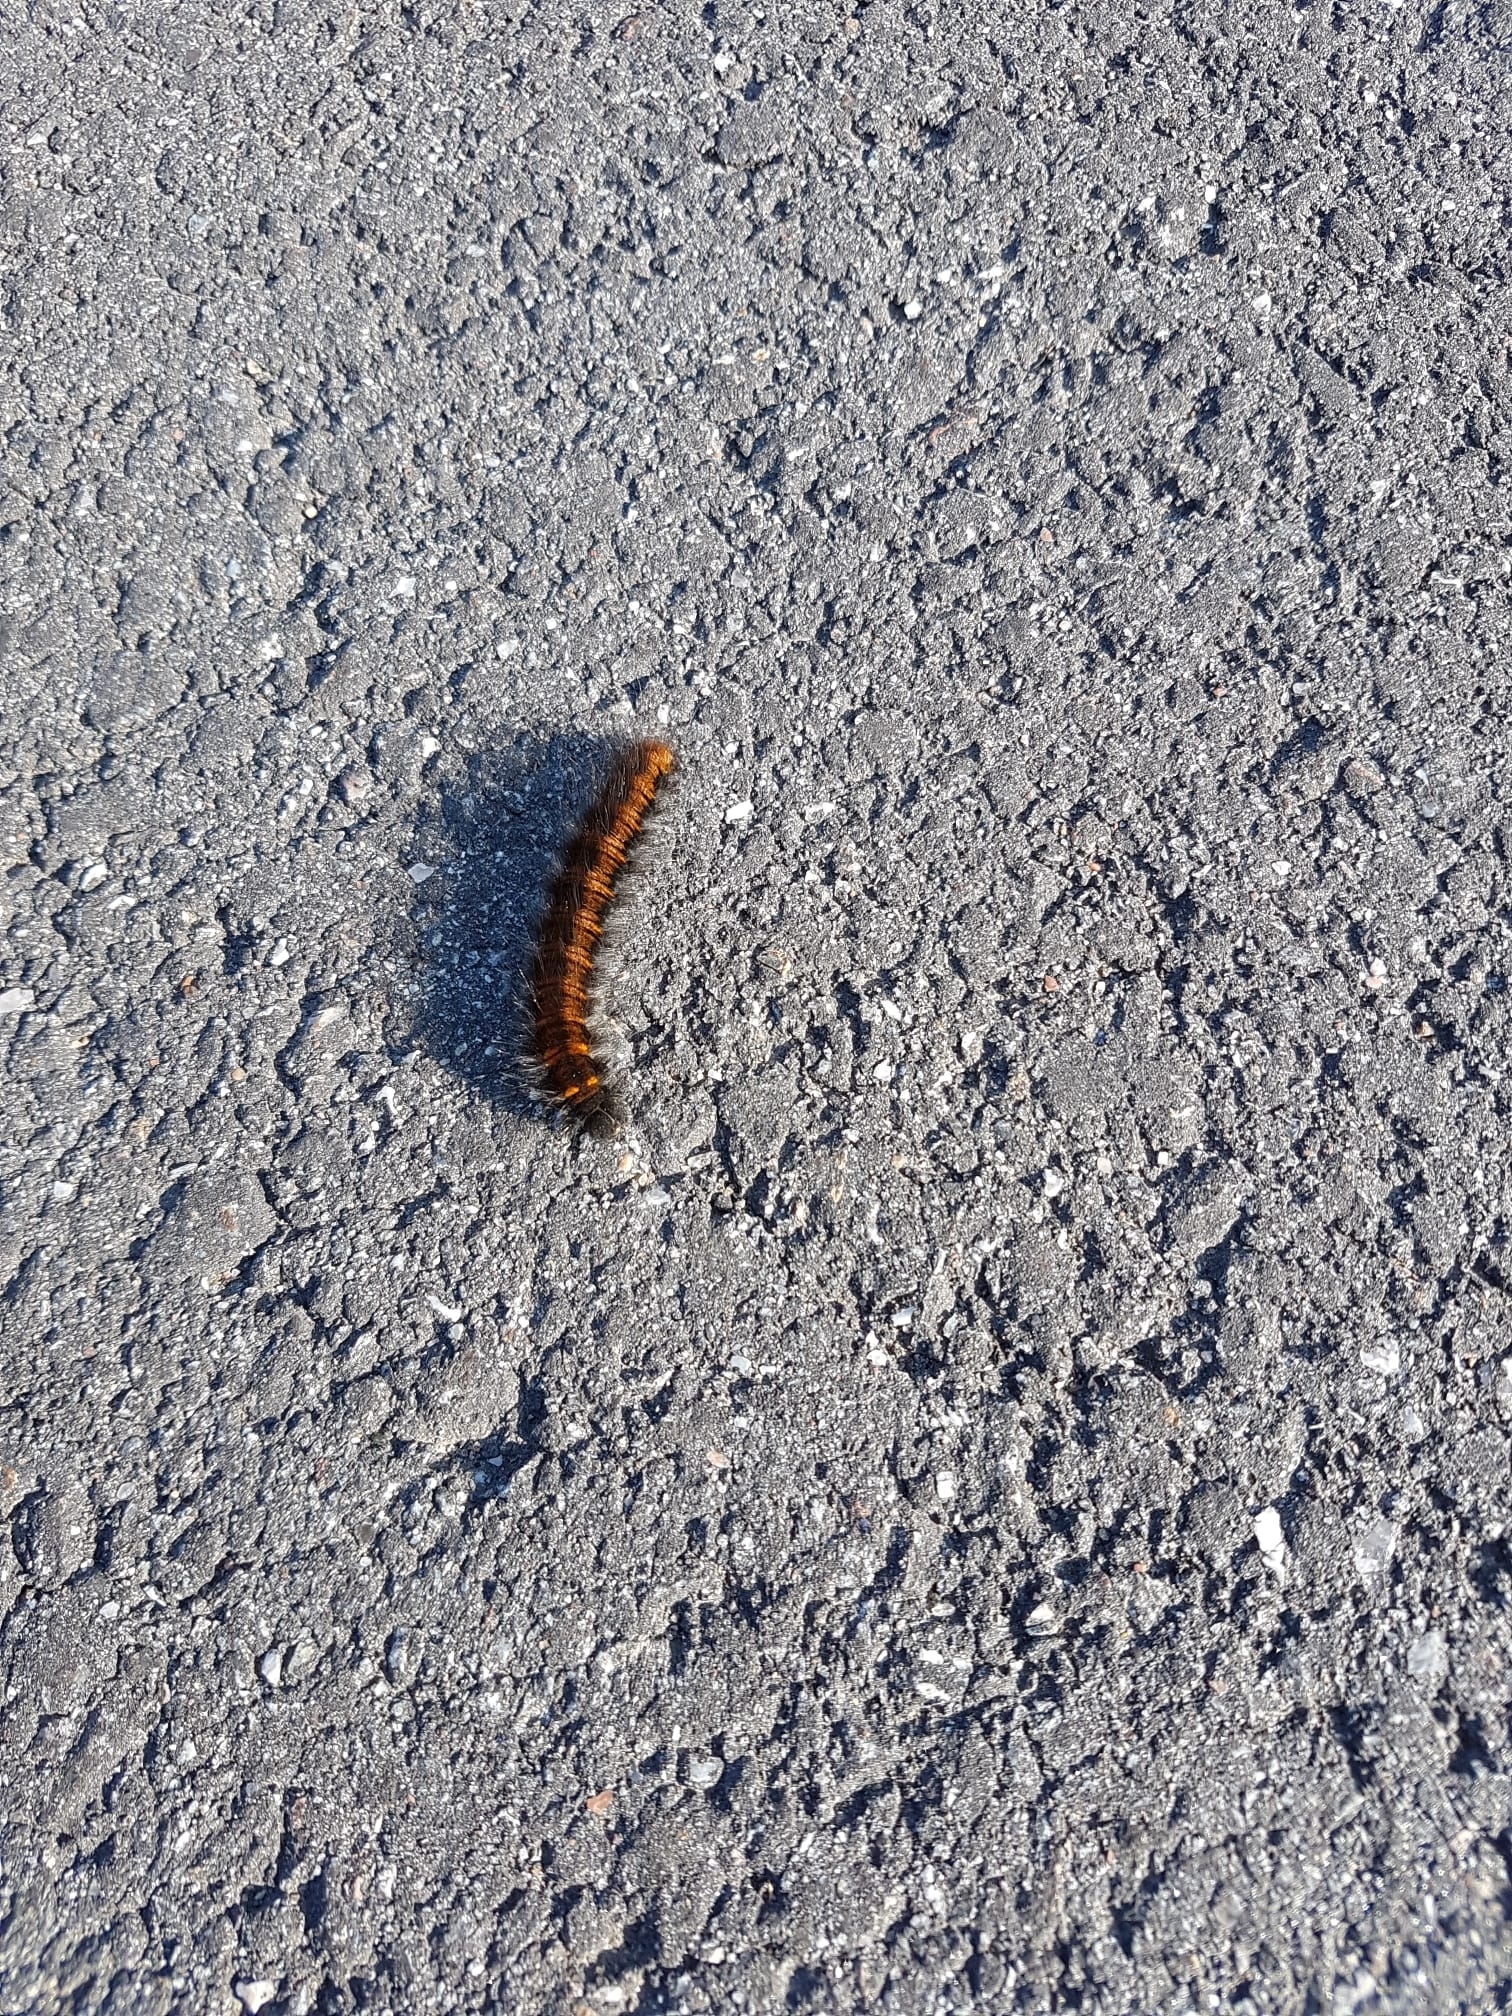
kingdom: Animalia
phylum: Arthropoda
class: Insecta
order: Lepidoptera
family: Lasiocampidae
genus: Macrothylacia
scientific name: Macrothylacia rubi
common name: Fox moth
